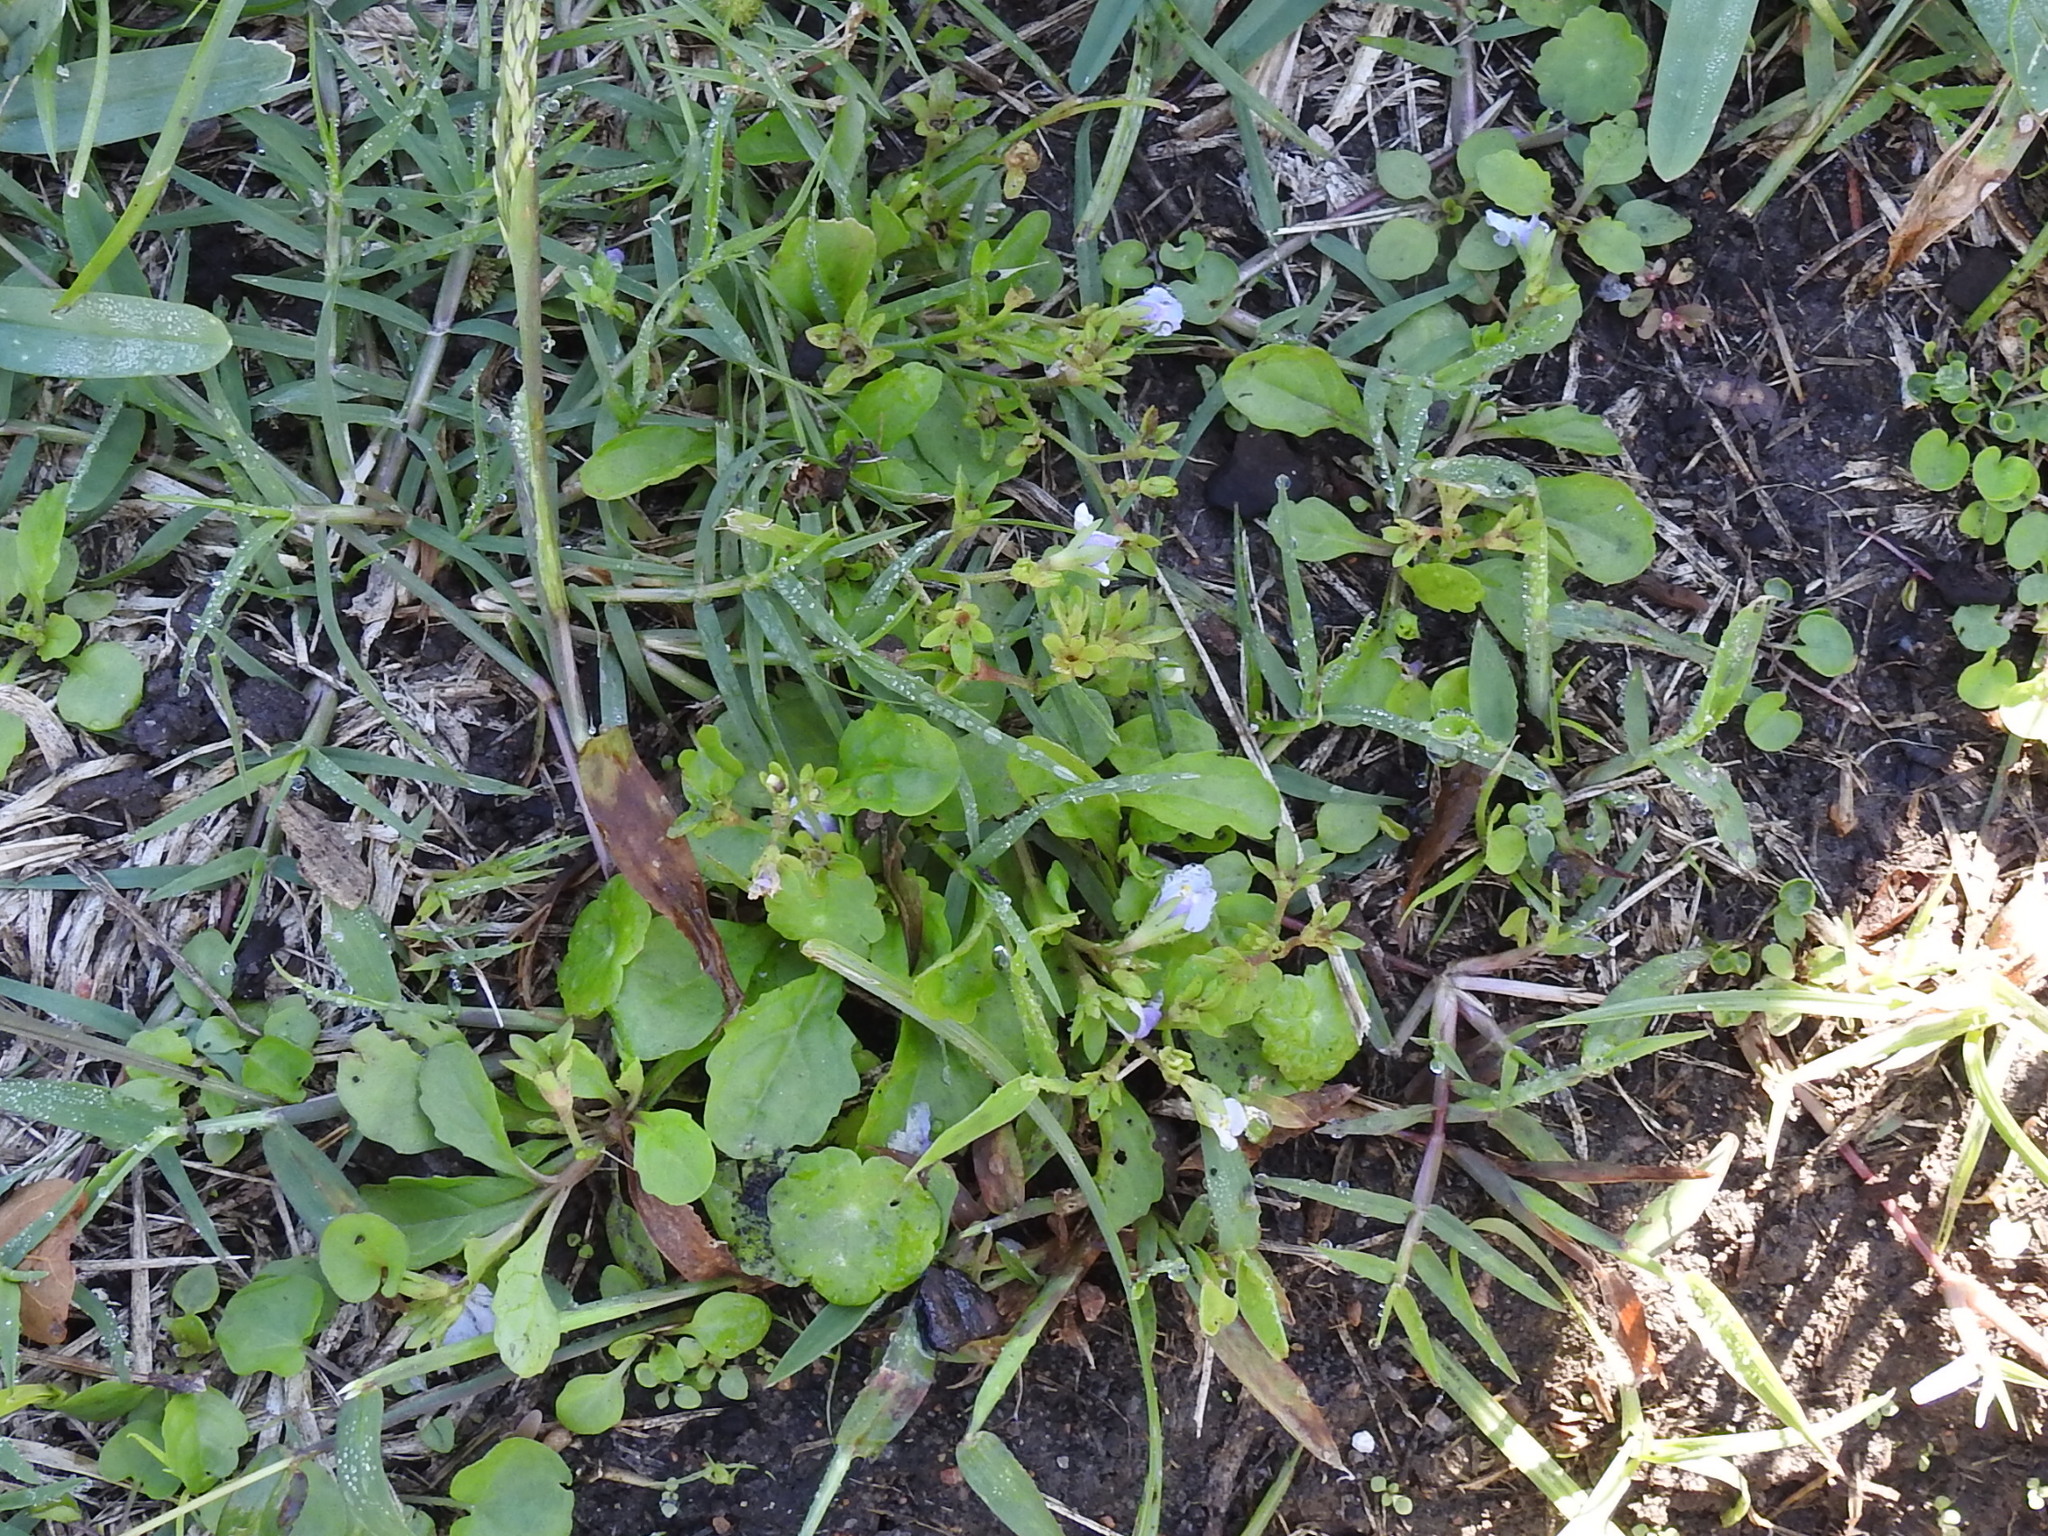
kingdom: Plantae
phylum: Tracheophyta
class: Magnoliopsida
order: Lamiales
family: Mazaceae
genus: Mazus
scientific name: Mazus pumilus
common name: Japanese mazus
